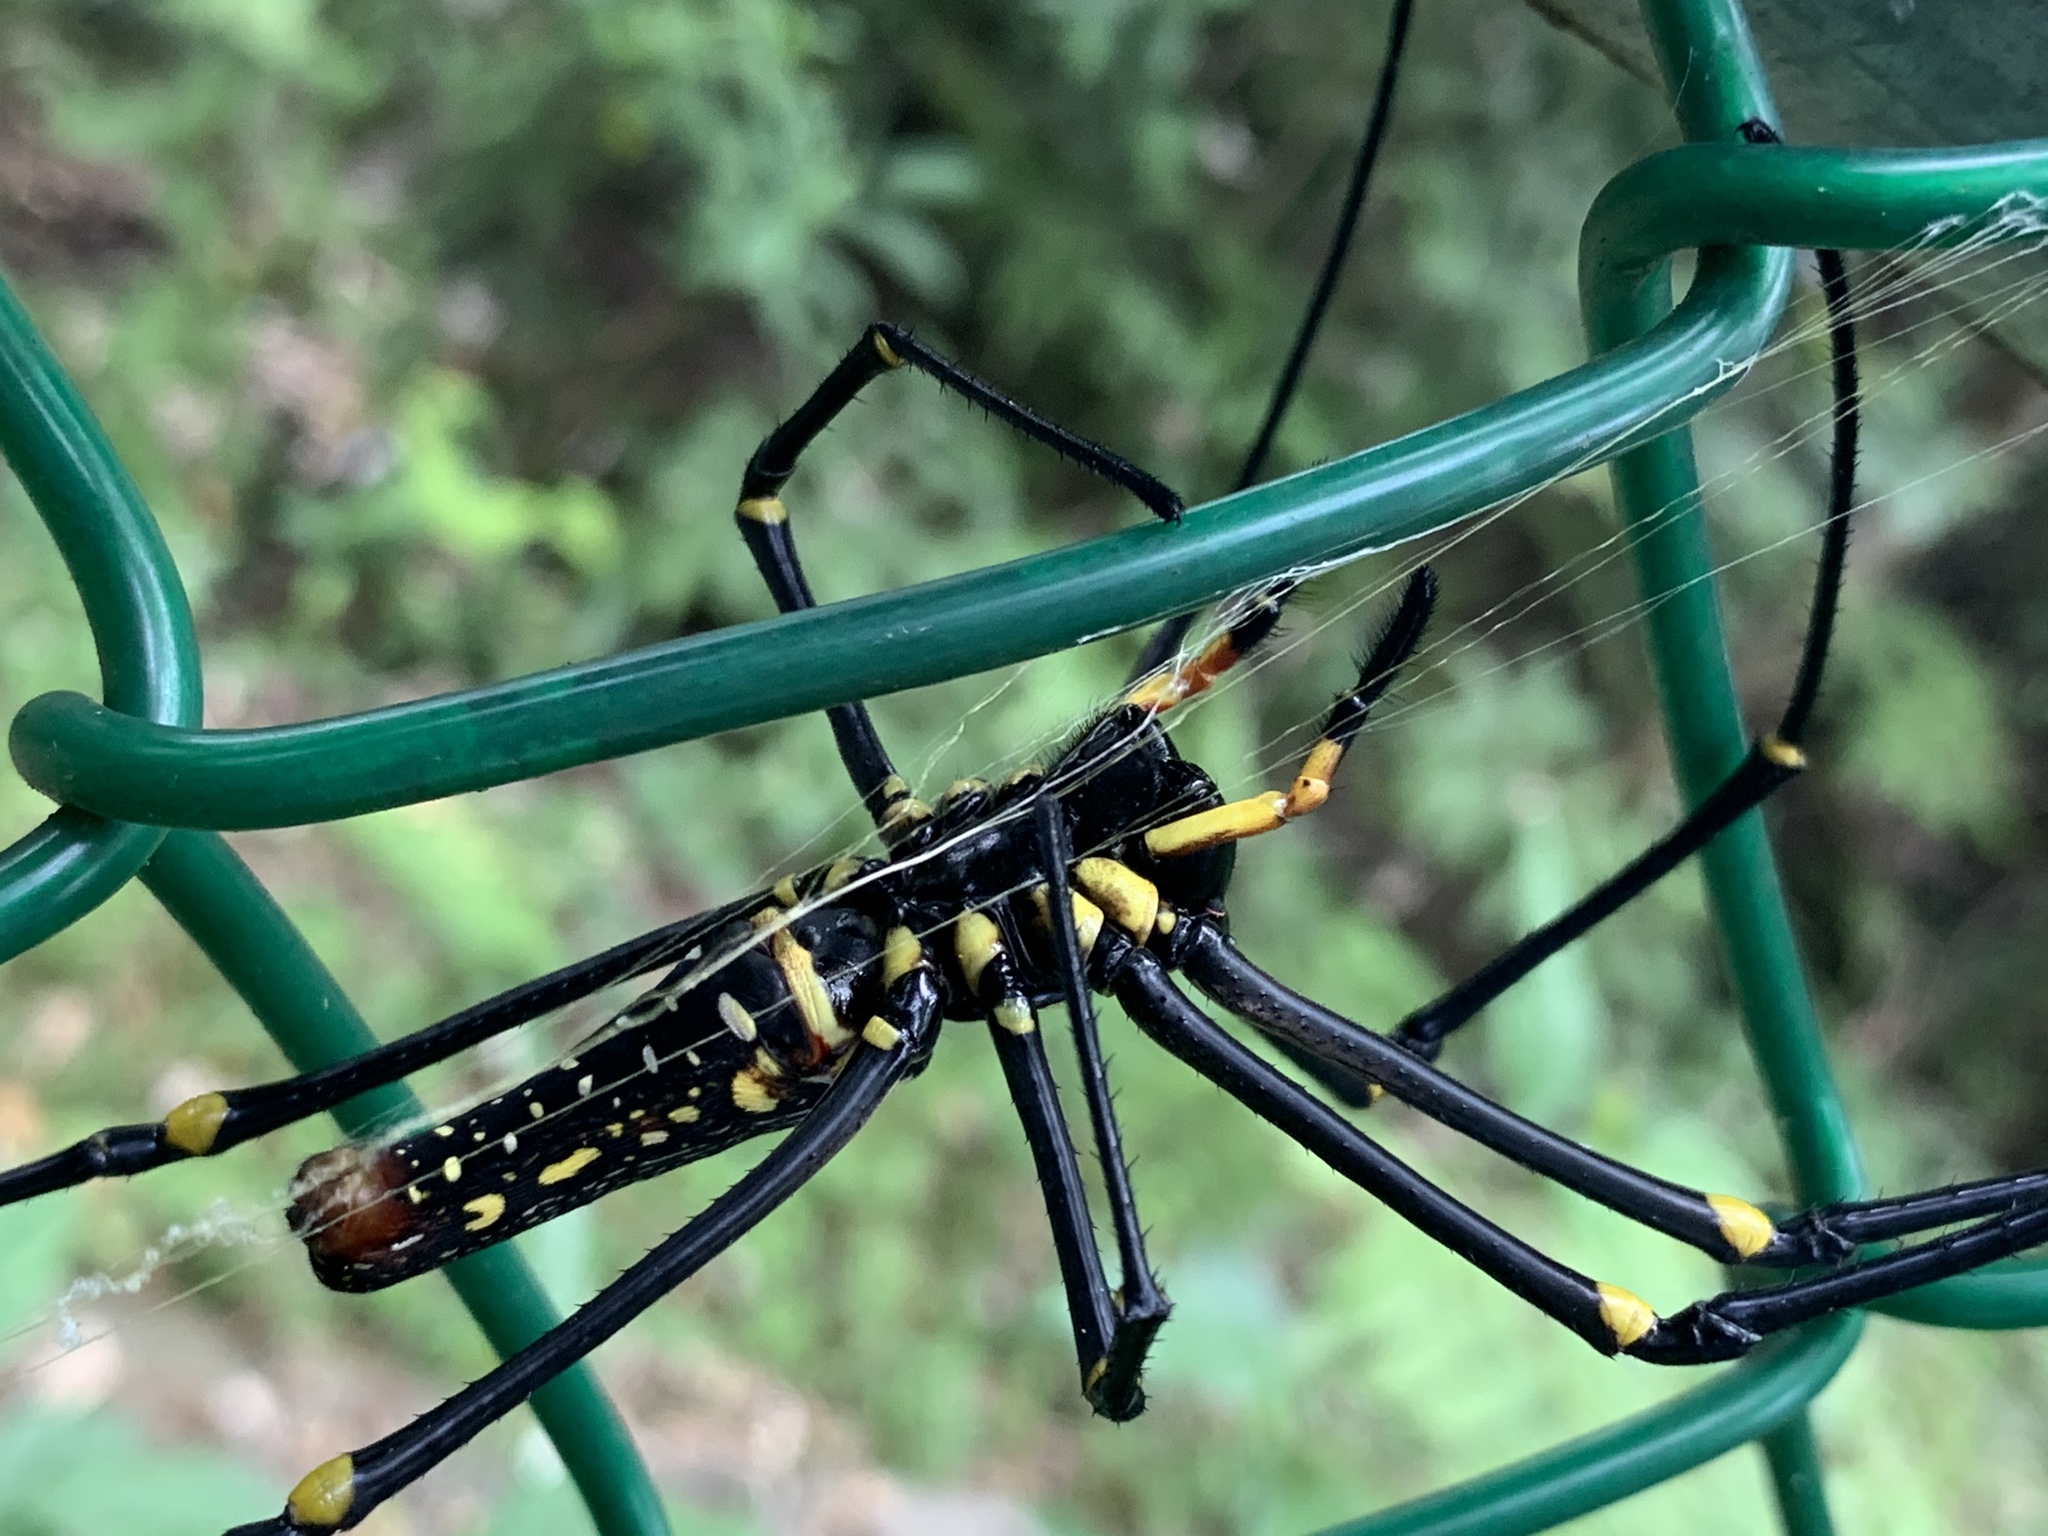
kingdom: Animalia
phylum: Arthropoda
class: Arachnida
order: Araneae
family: Araneidae
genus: Nephila
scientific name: Nephila pilipes
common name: Giant golden orb weaver
